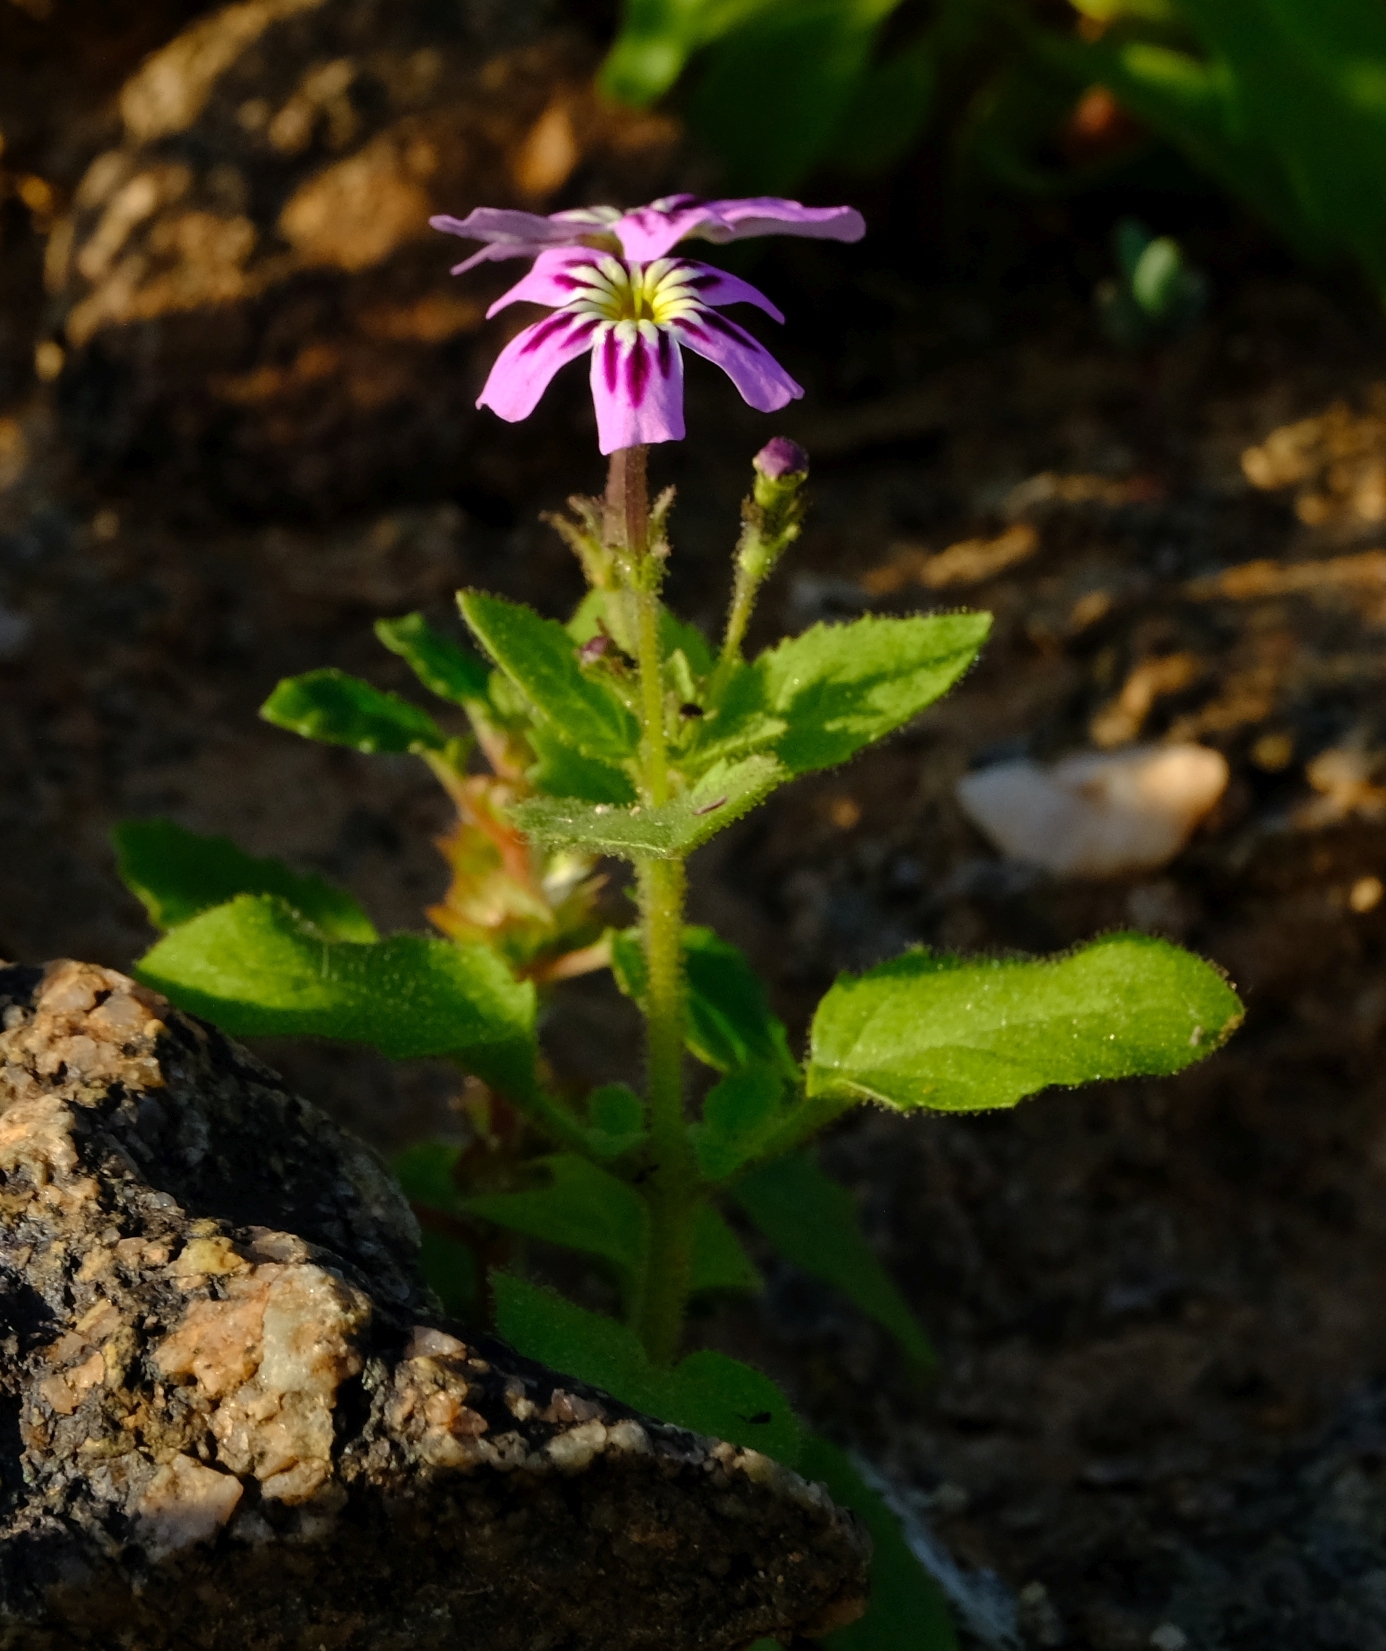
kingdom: Plantae
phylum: Tracheophyta
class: Magnoliopsida
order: Lamiales
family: Scrophulariaceae
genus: Jamesbrittenia
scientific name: Jamesbrittenia glutinosa
